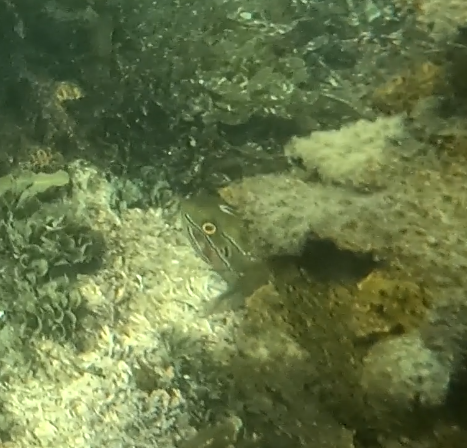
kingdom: Animalia
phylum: Chordata
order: Perciformes
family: Odacidae
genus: Heteroscarus
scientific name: Heteroscarus acroptilus
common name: Marine rainbowfish
